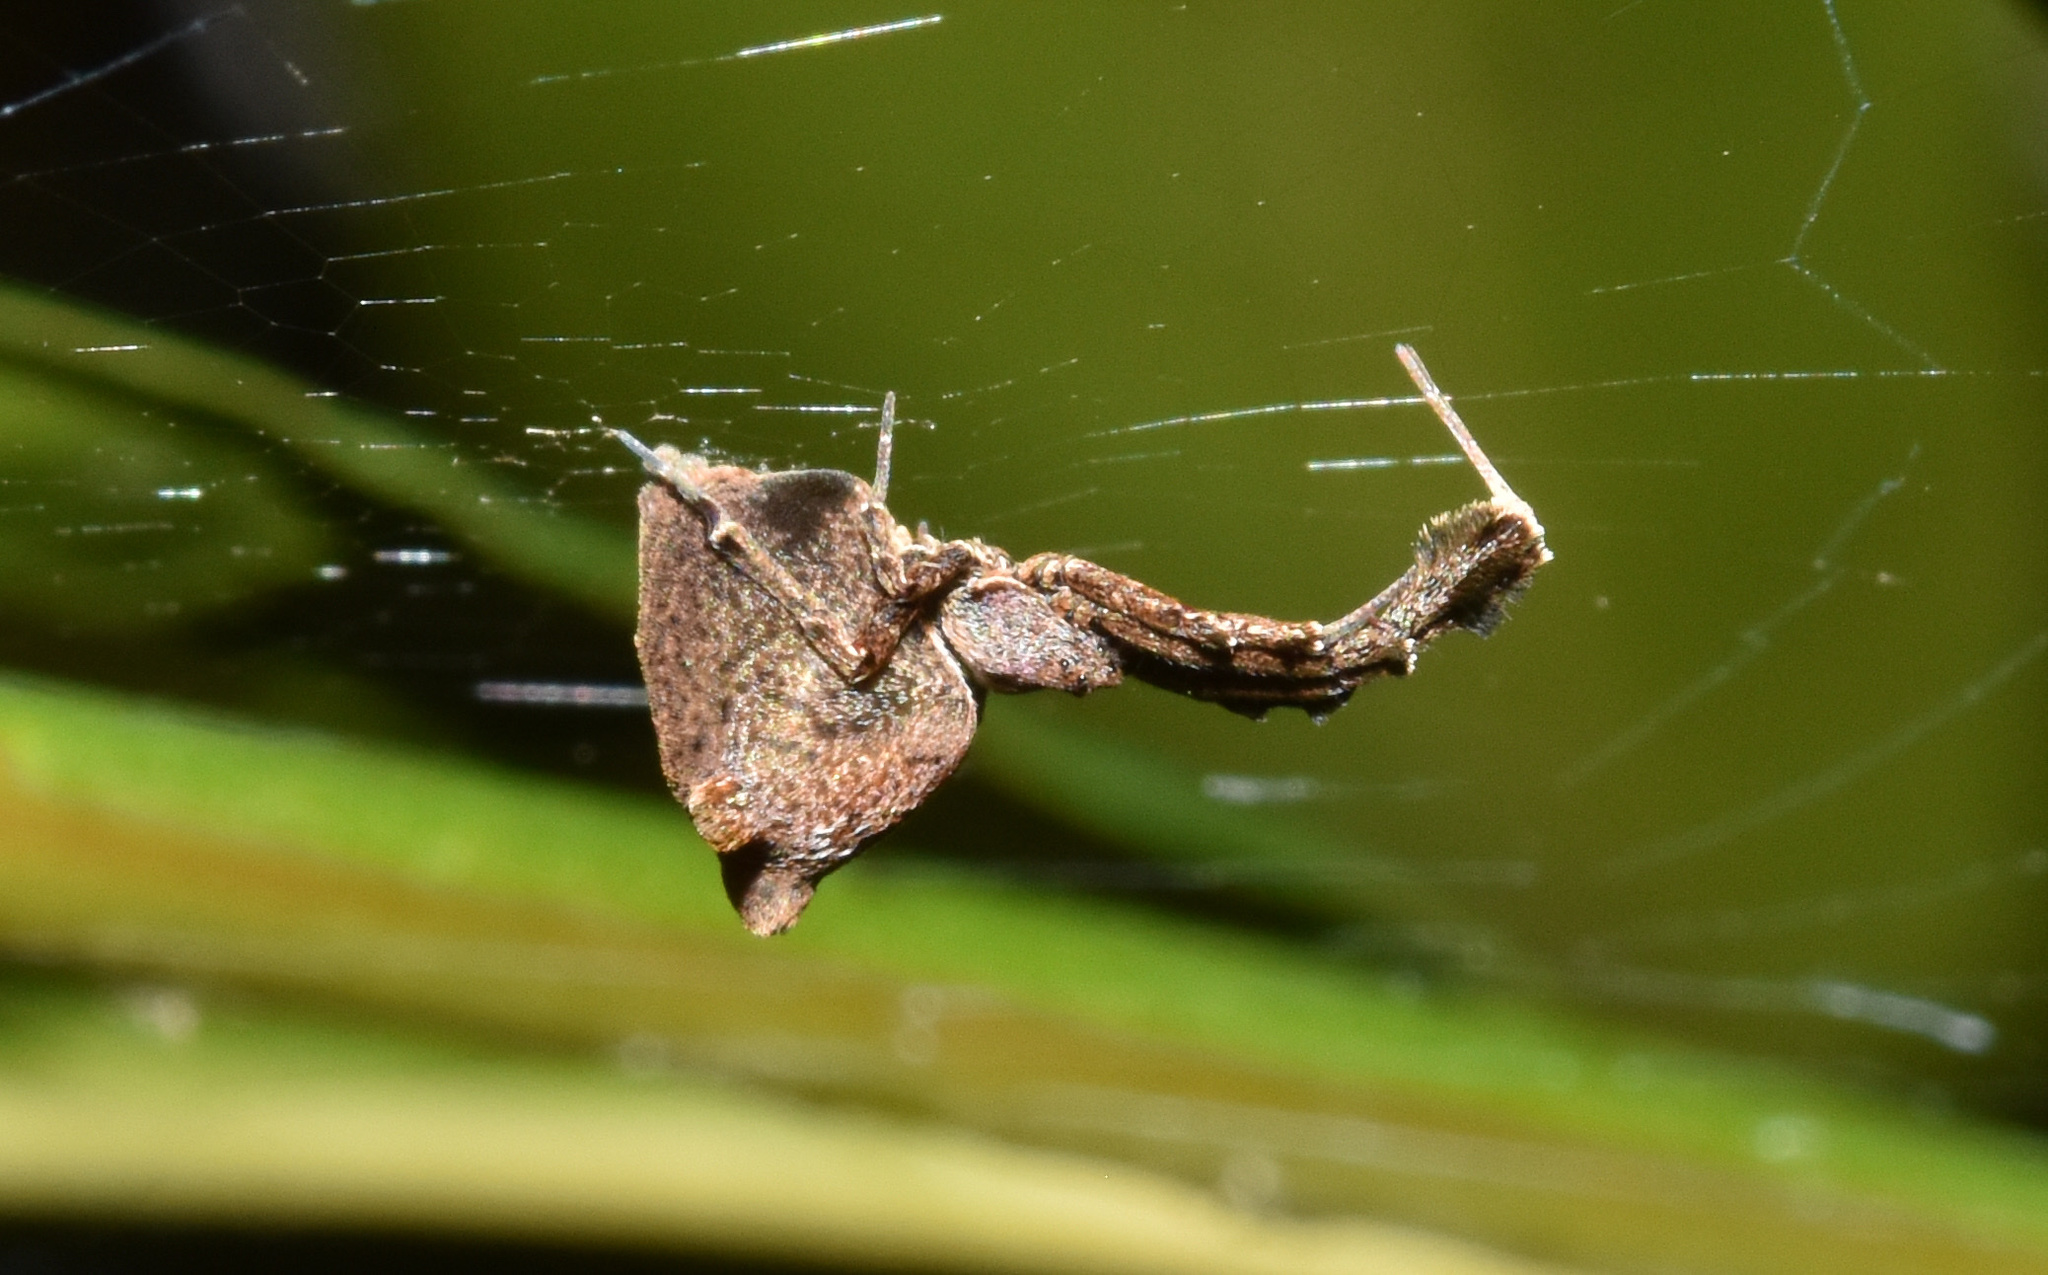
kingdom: Animalia
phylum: Arthropoda
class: Arachnida
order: Araneae
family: Uloboridae
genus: Uloborus
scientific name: Uloborus plumipes
